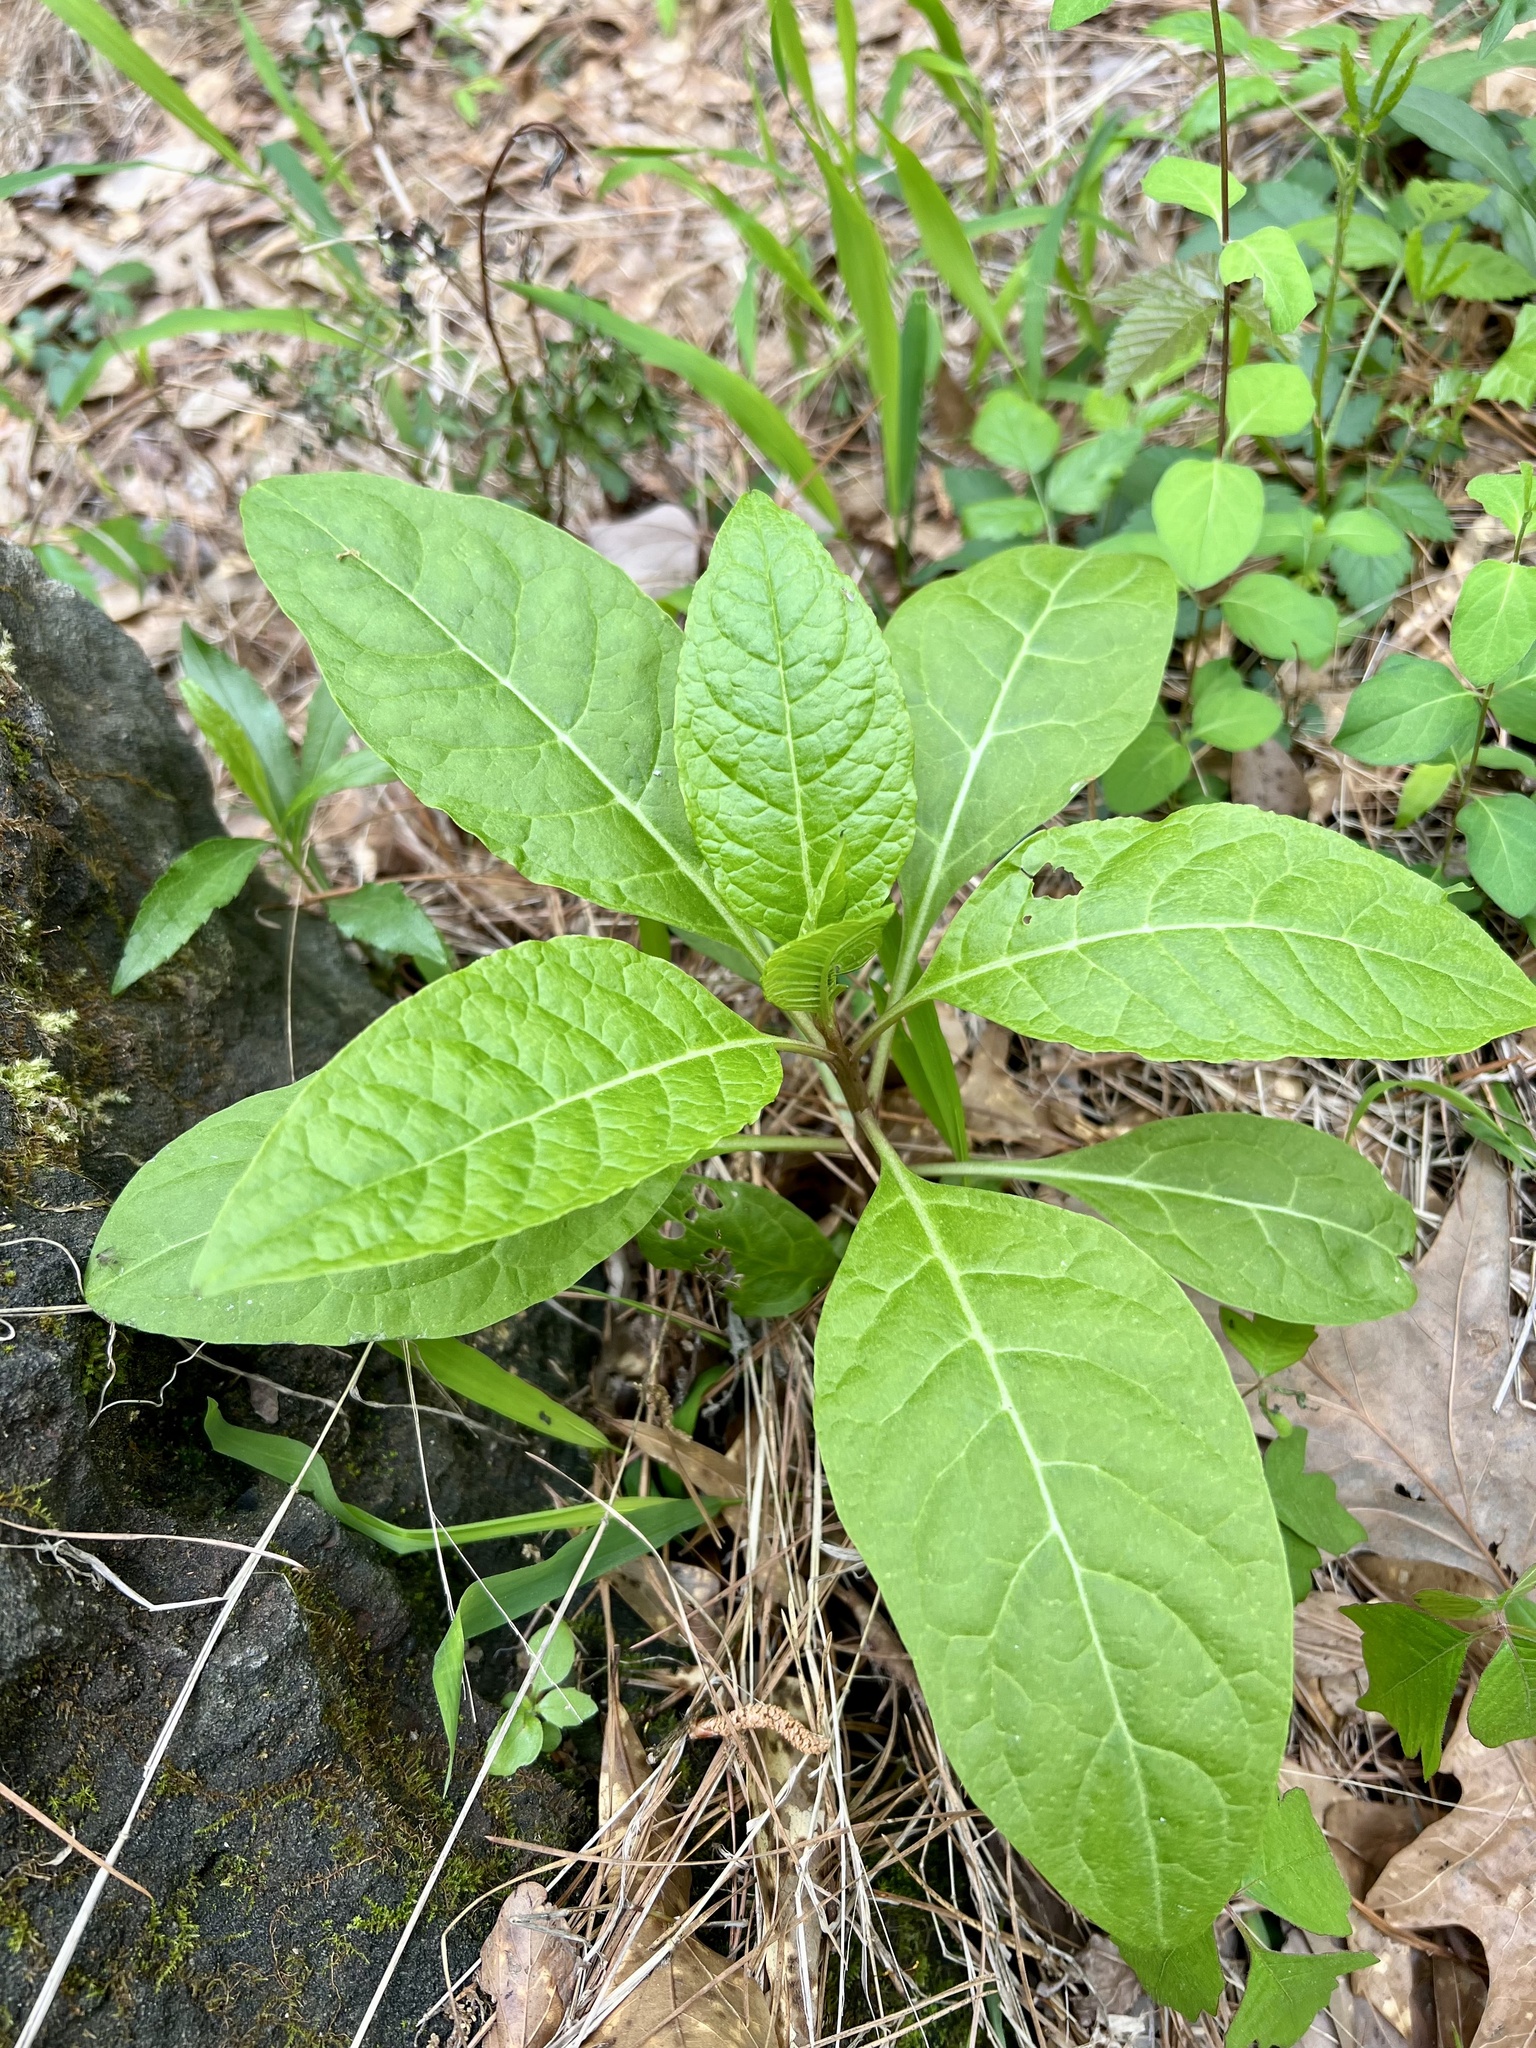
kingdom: Plantae
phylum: Tracheophyta
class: Magnoliopsida
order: Caryophyllales
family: Phytolaccaceae
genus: Phytolacca
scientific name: Phytolacca americana
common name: American pokeweed
